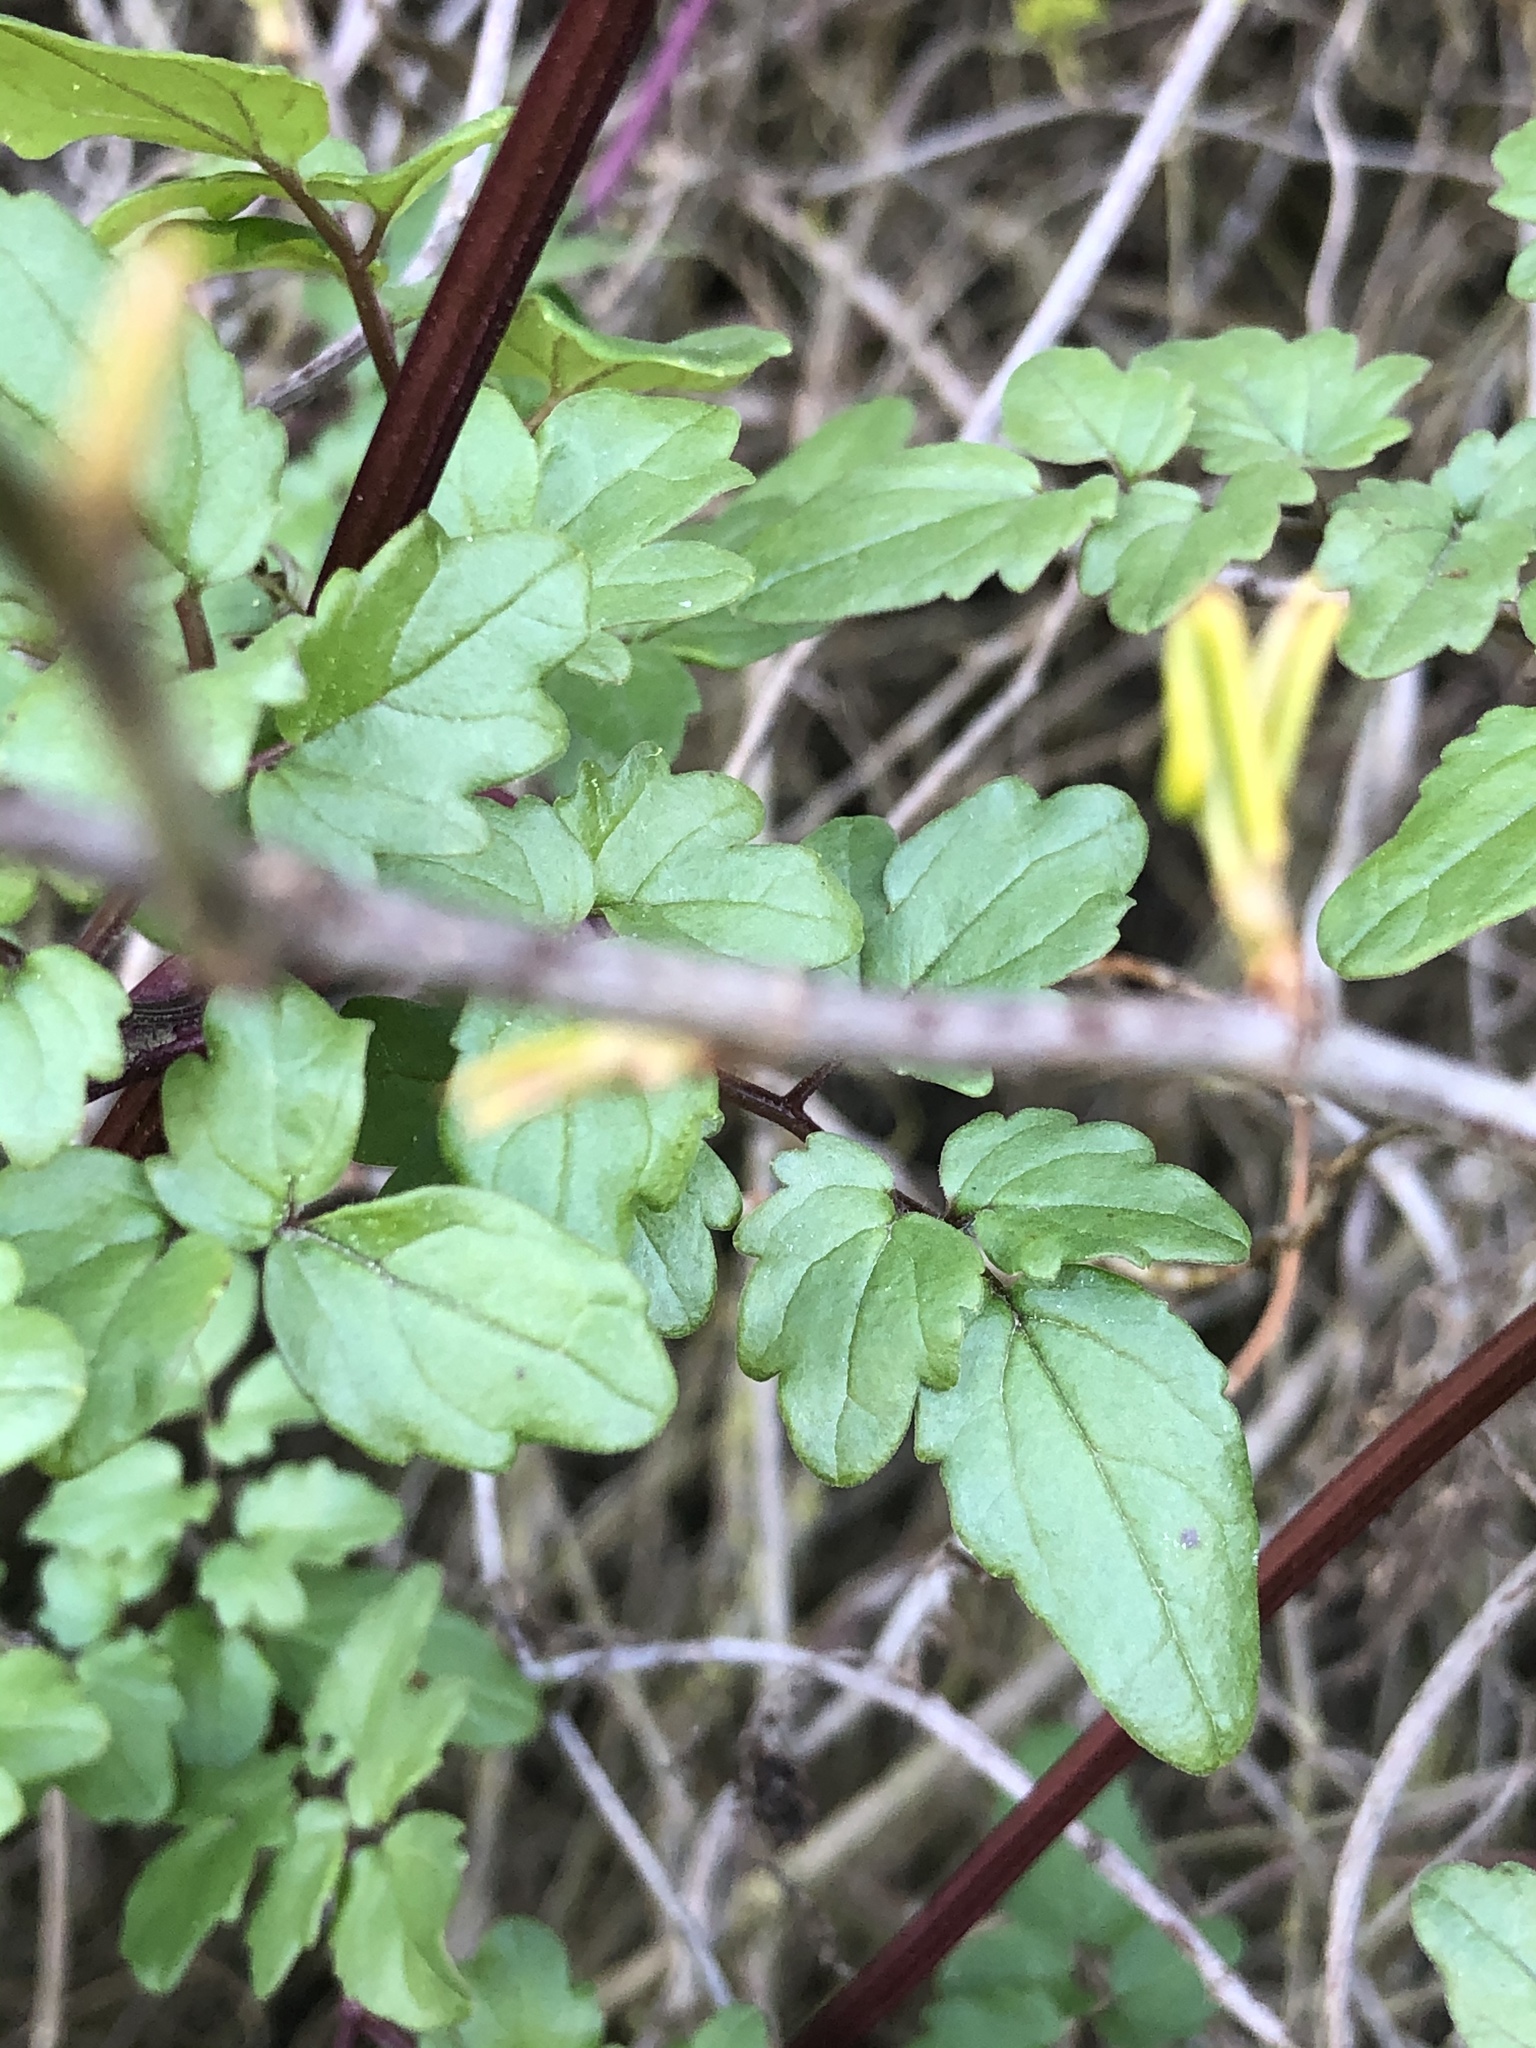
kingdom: Plantae
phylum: Tracheophyta
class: Magnoliopsida
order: Lamiales
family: Bignoniaceae
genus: Eccremocarpus
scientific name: Eccremocarpus scaber
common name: Chilean glory-flower
